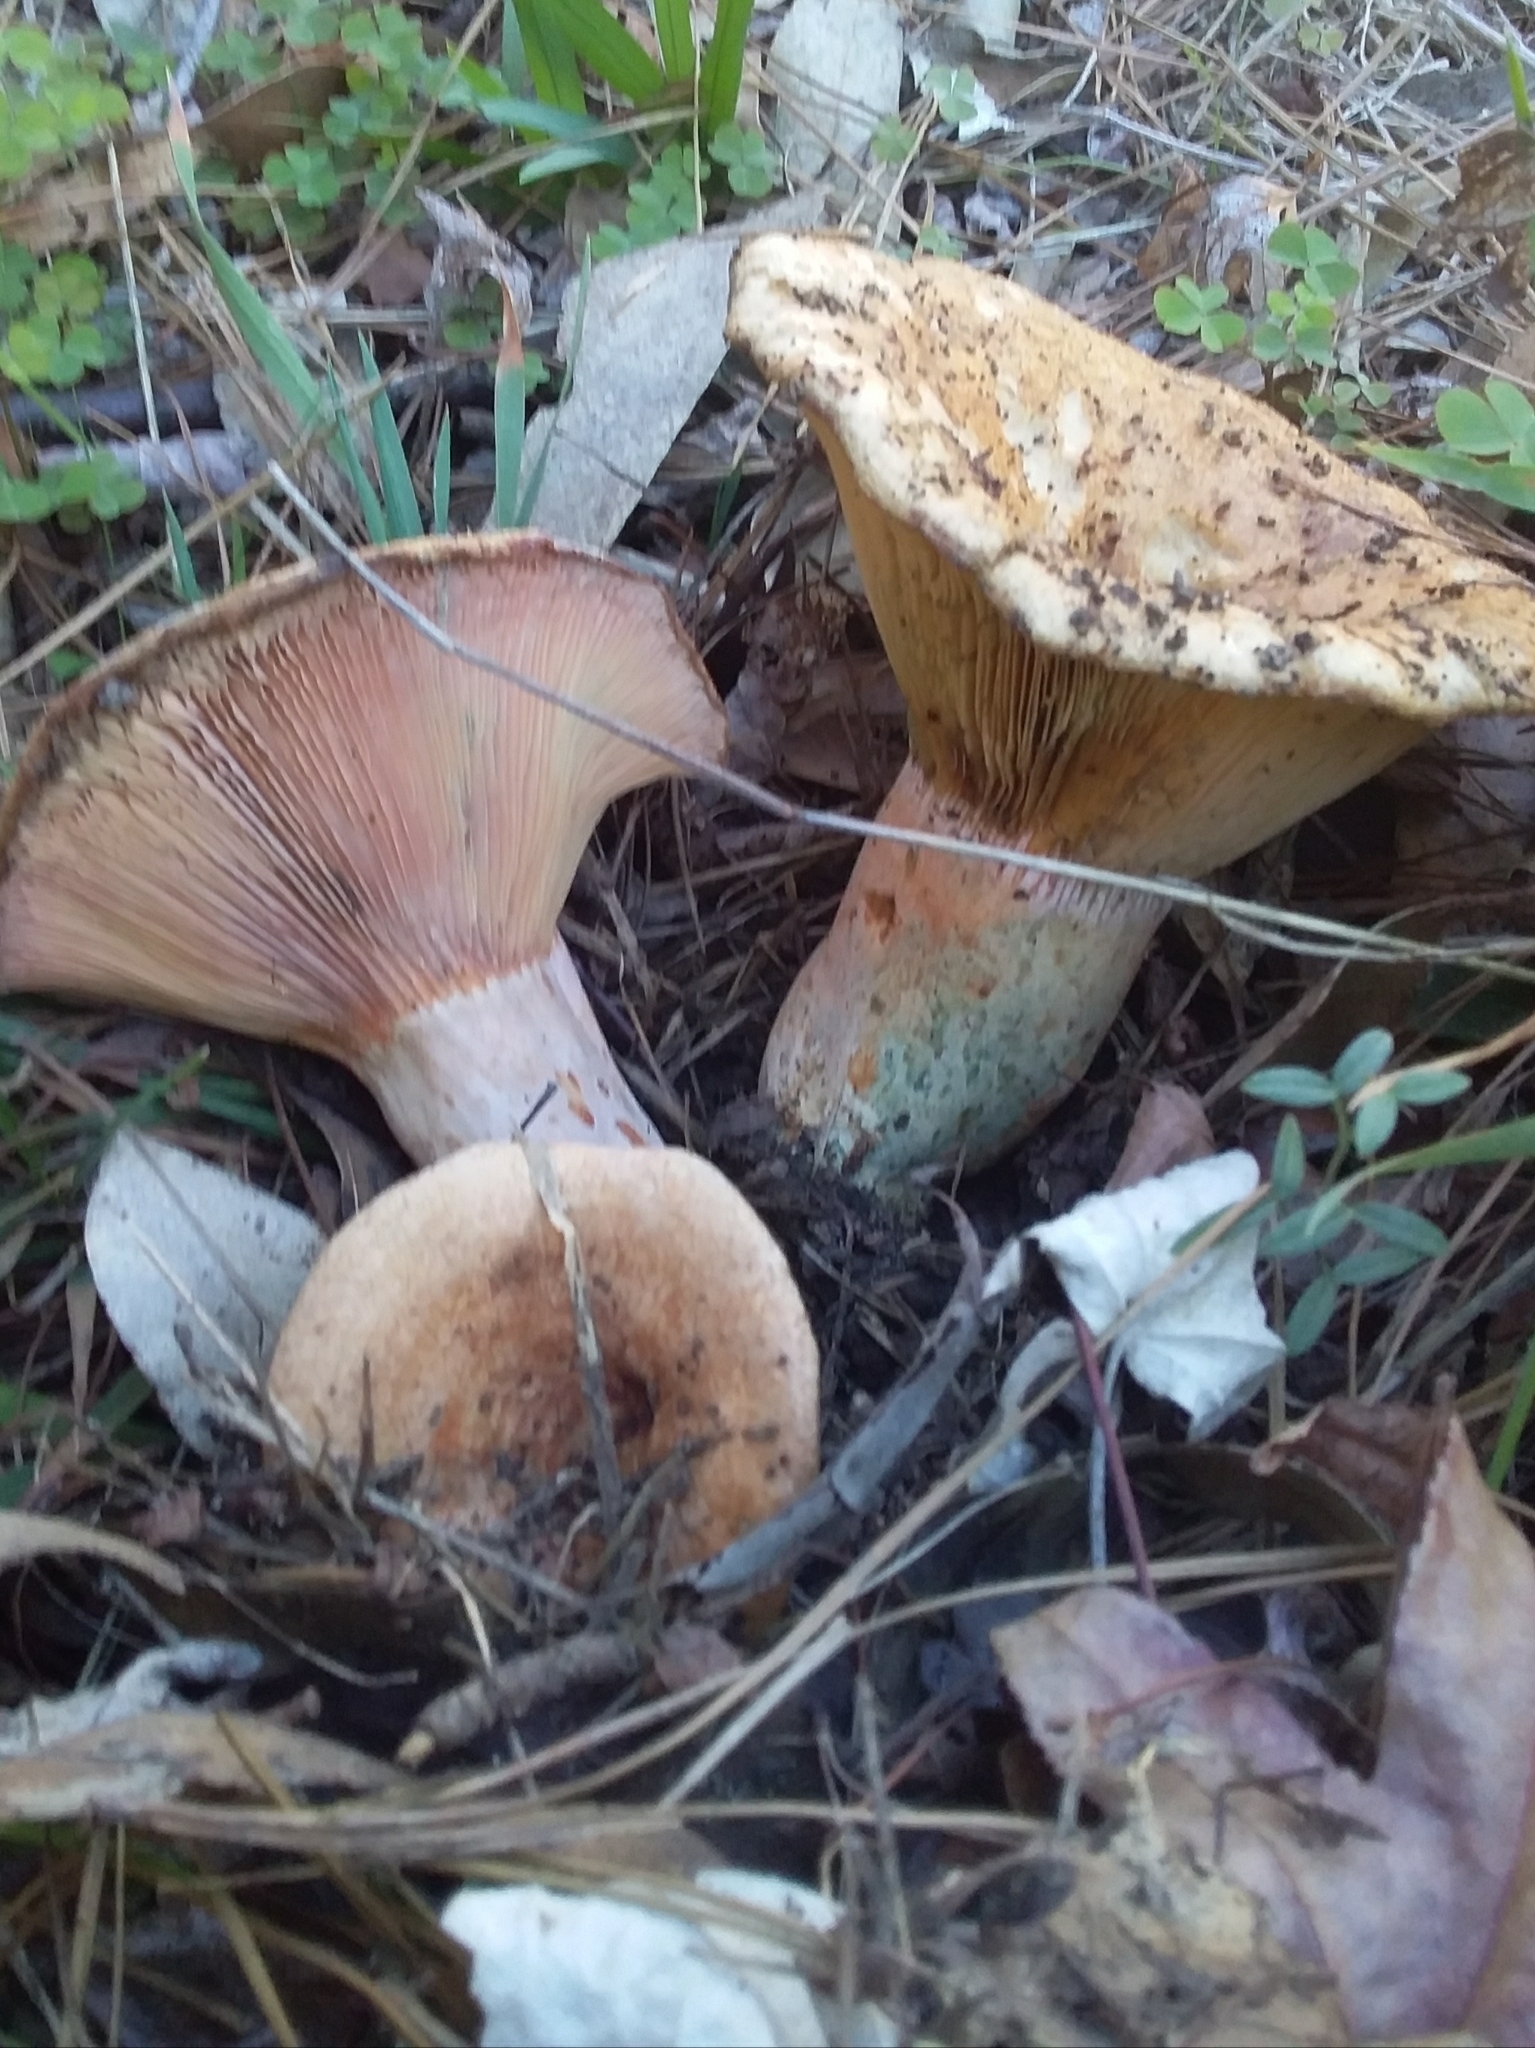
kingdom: Fungi
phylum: Basidiomycota
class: Agaricomycetes
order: Russulales
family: Russulaceae
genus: Lactarius
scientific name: Lactarius deliciosus
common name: Saffron milk-cap
